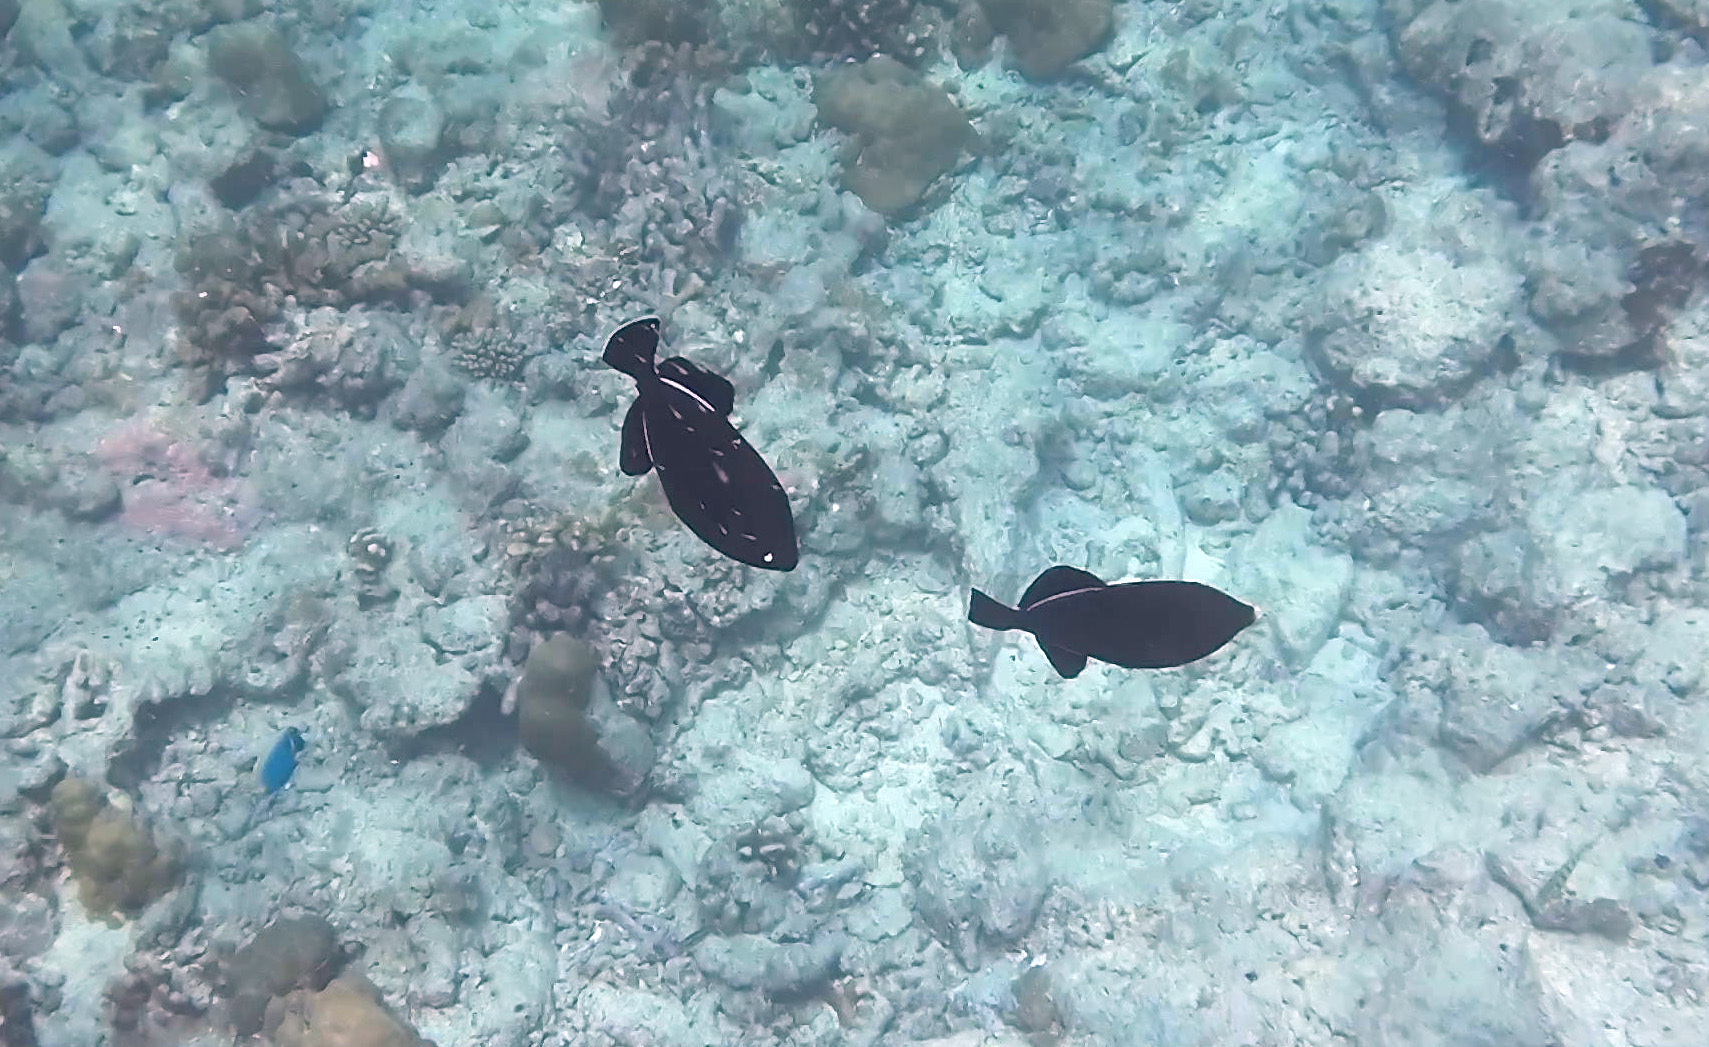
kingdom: Animalia
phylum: Chordata
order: Tetraodontiformes
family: Balistidae
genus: Melichthys
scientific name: Melichthys indicus
